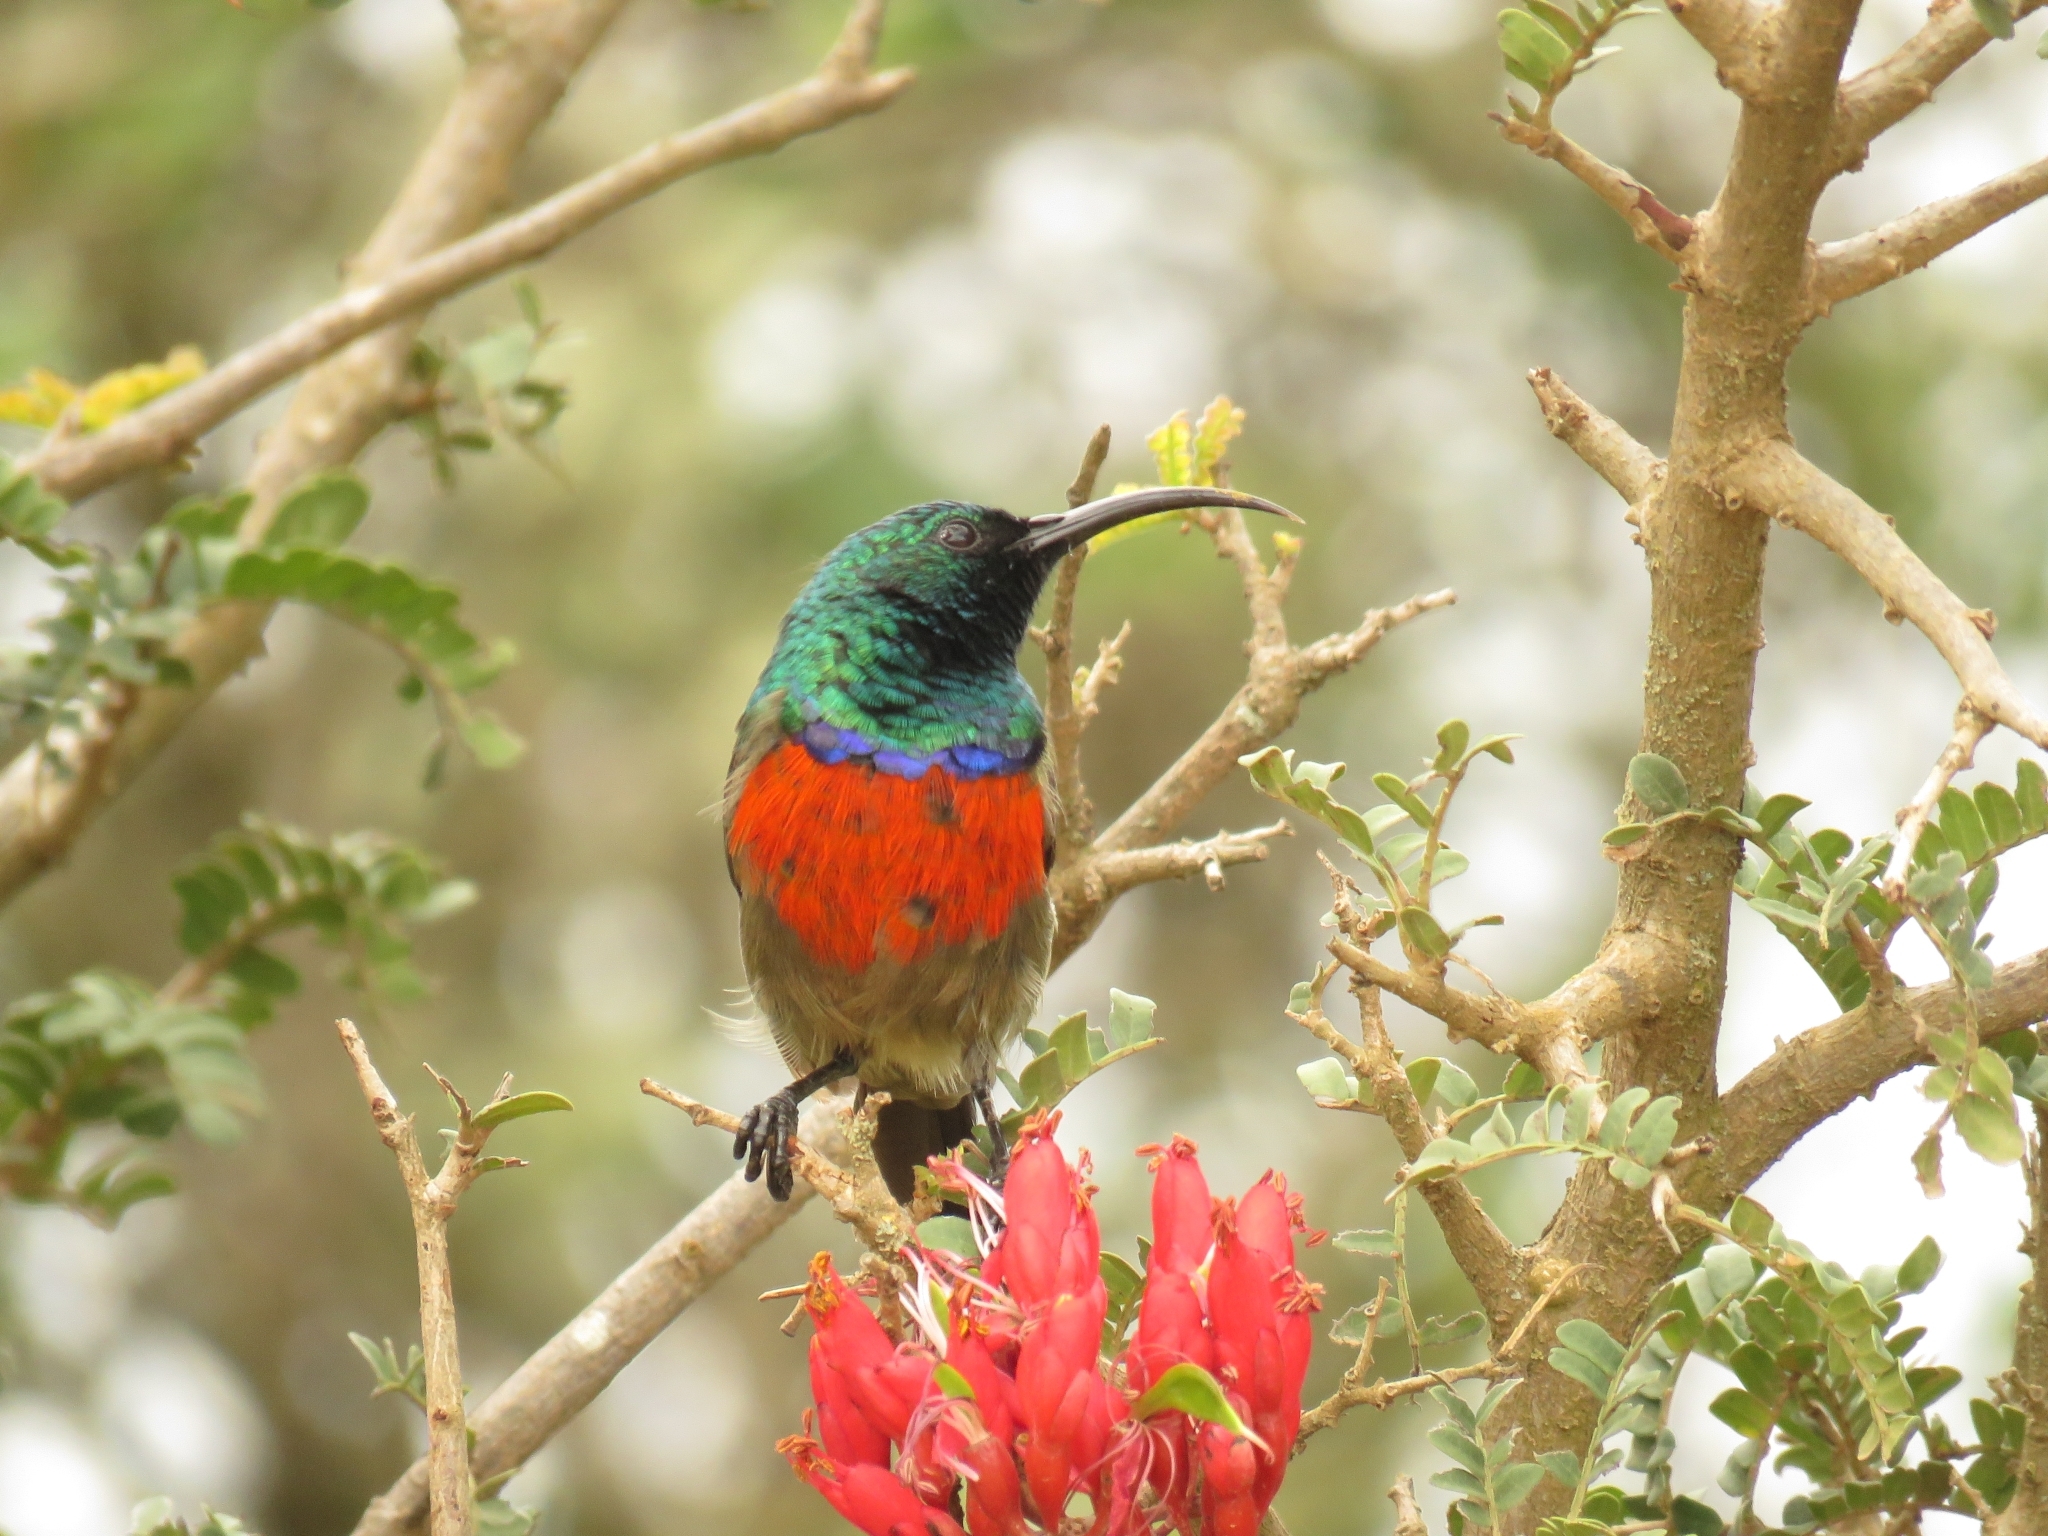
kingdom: Animalia
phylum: Chordata
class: Aves
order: Passeriformes
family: Nectariniidae
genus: Cinnyris
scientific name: Cinnyris afer
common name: Greater double-collared sunbird
